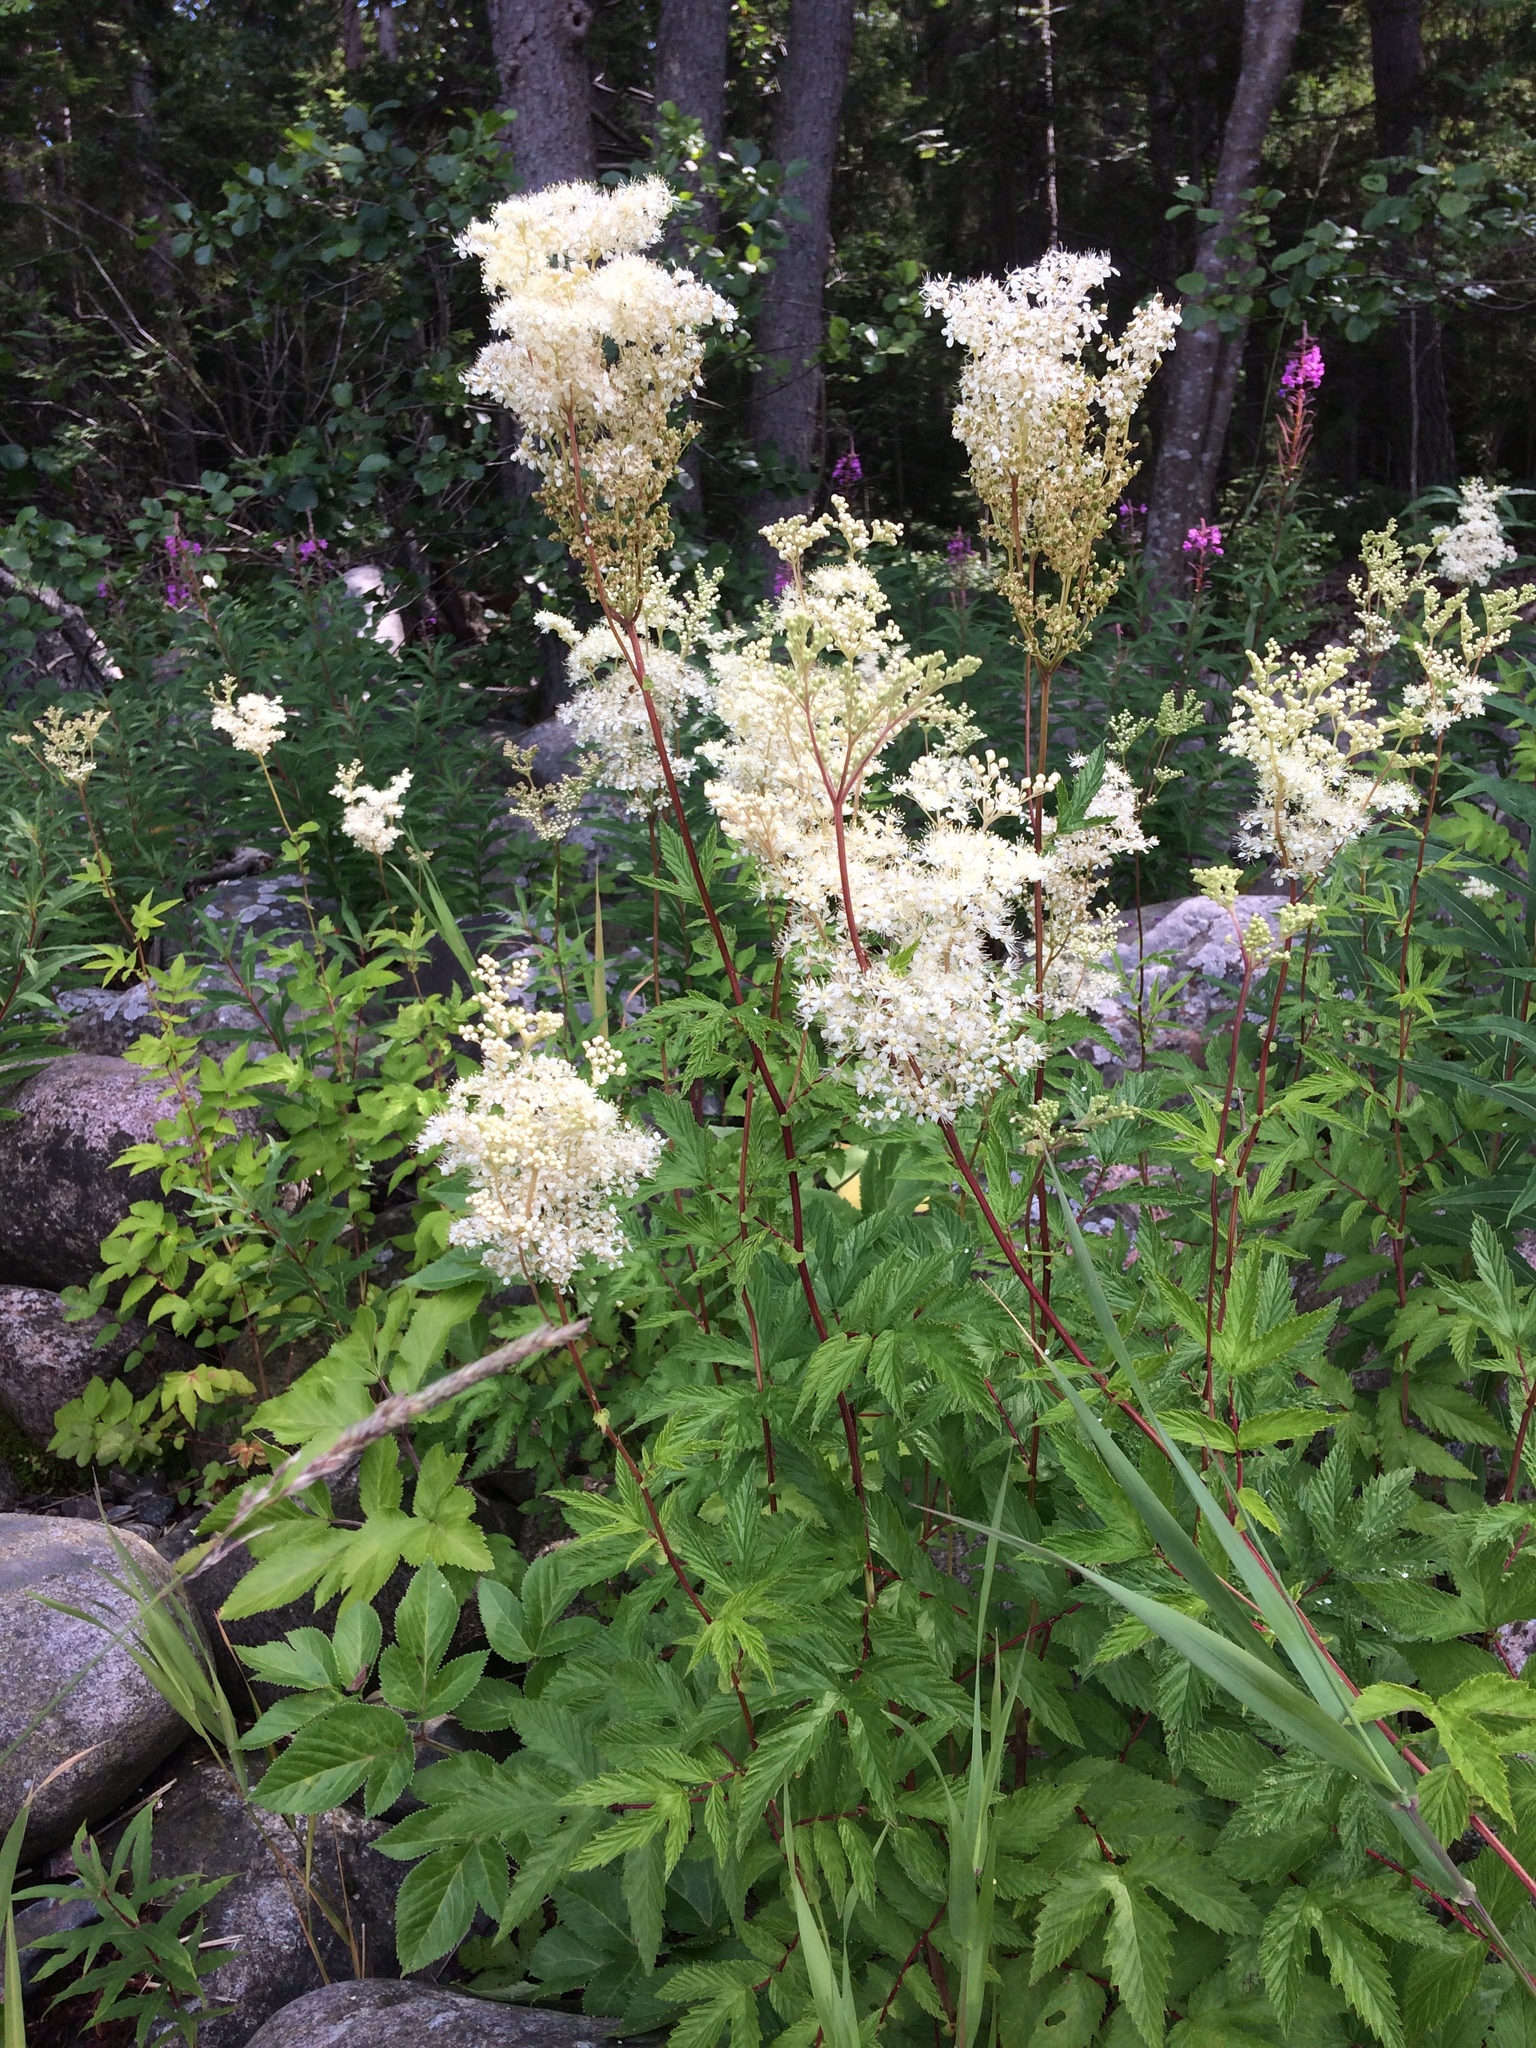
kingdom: Plantae
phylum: Tracheophyta
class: Magnoliopsida
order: Rosales
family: Rosaceae
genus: Filipendula
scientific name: Filipendula ulmaria
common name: Meadowsweet
